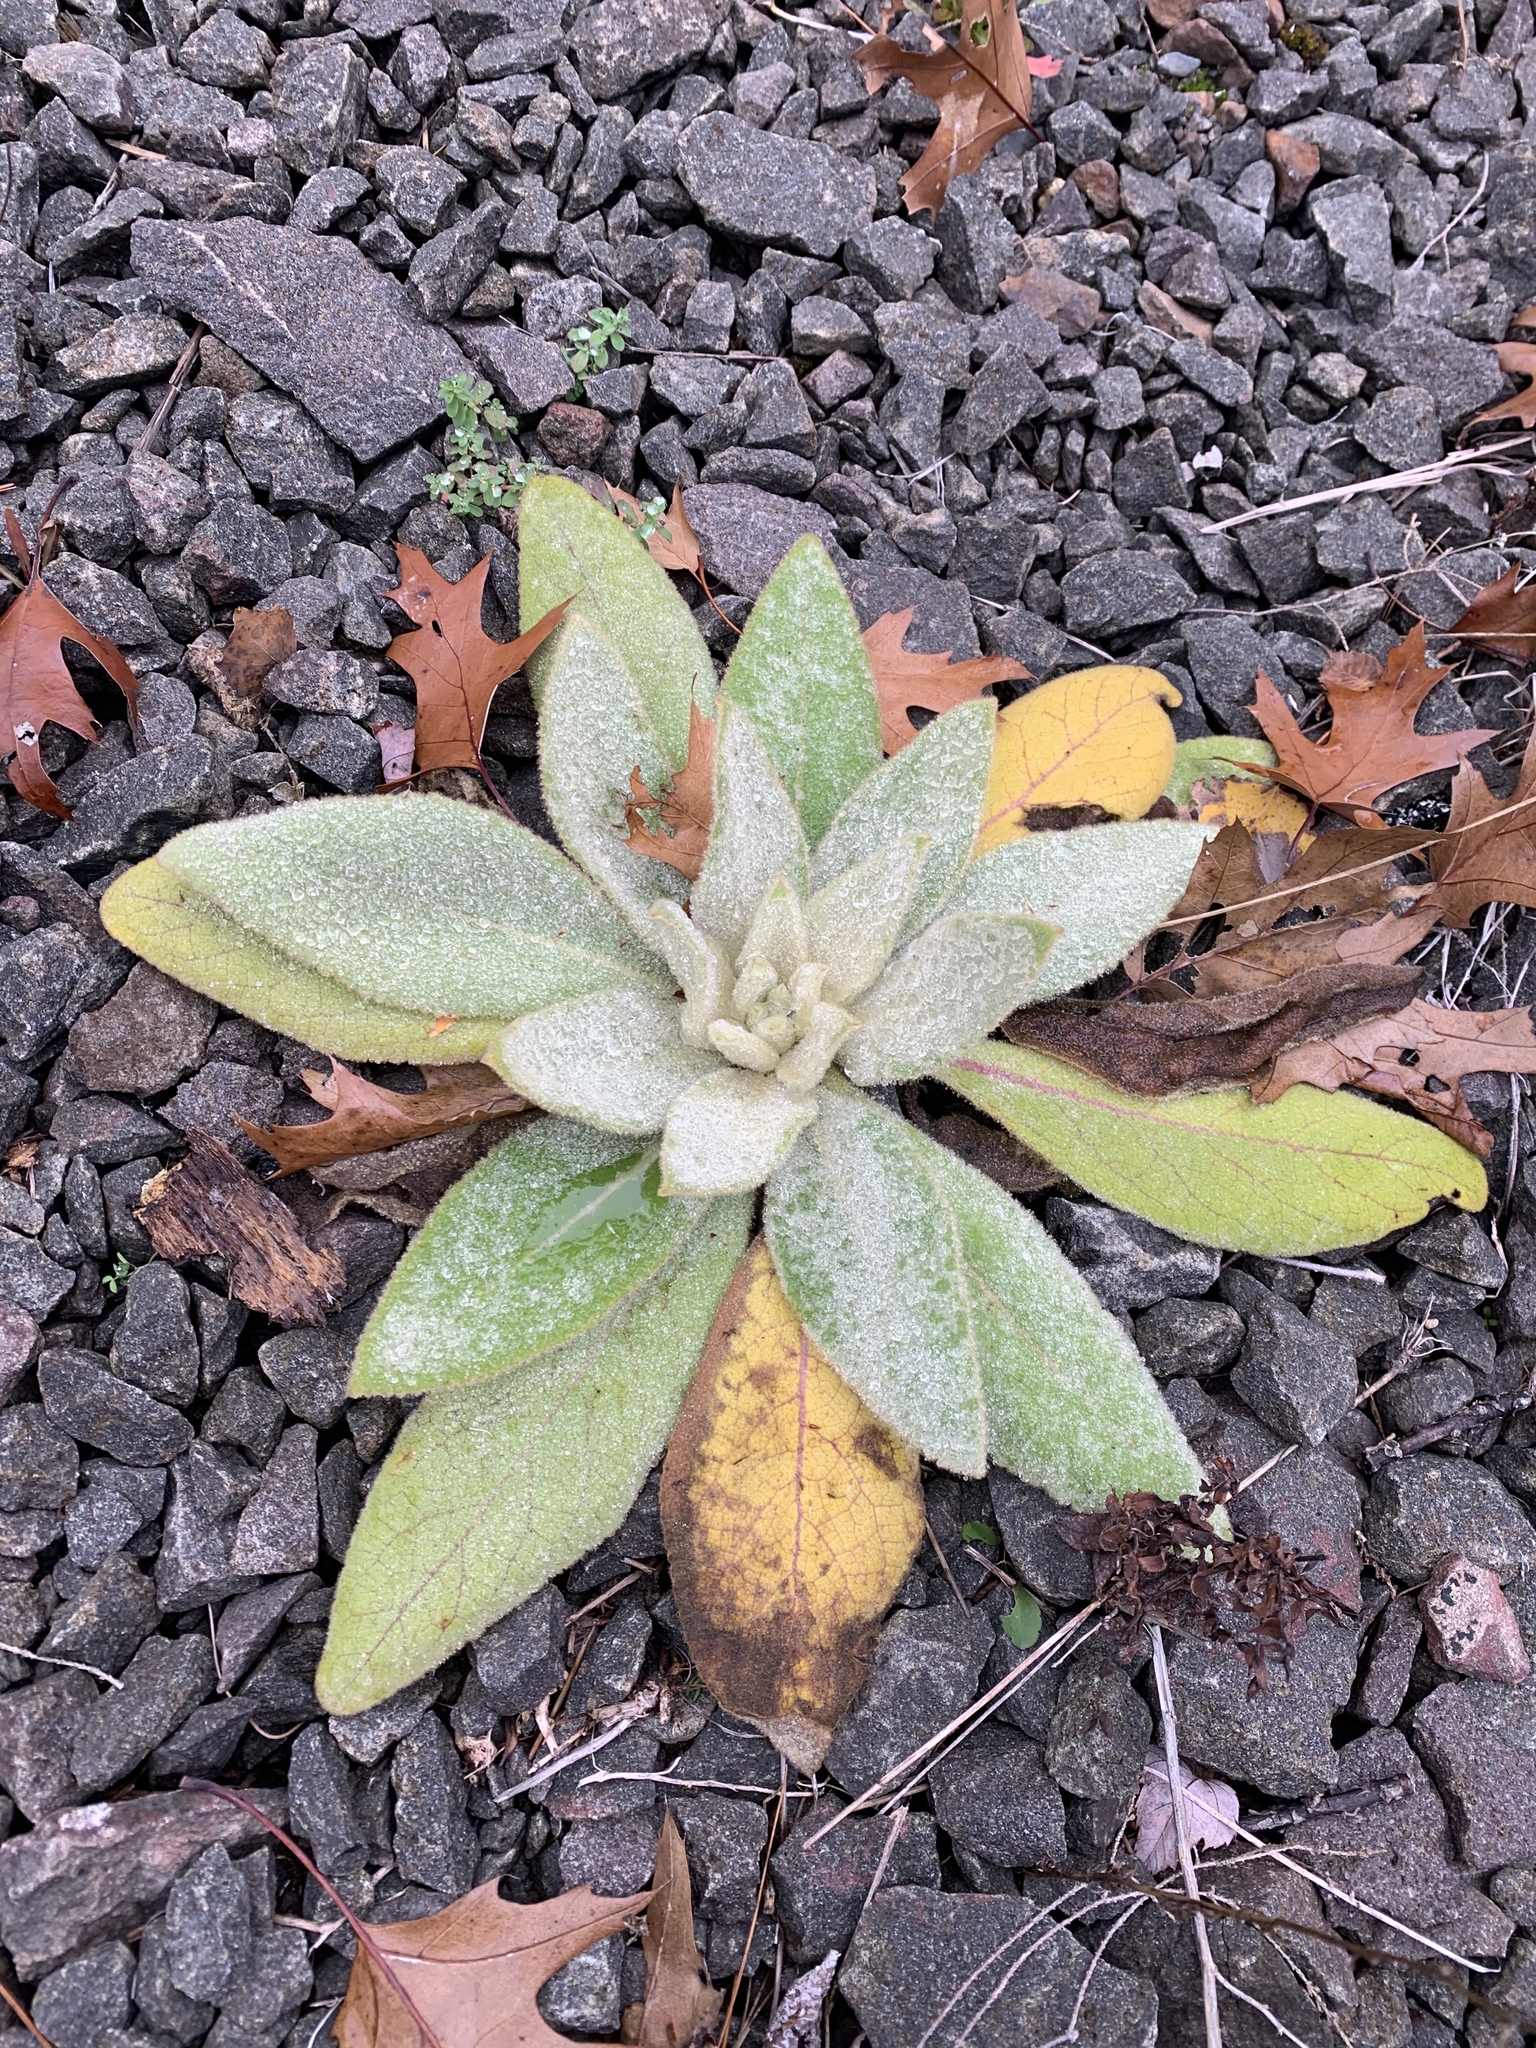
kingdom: Plantae
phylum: Tracheophyta
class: Magnoliopsida
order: Lamiales
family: Scrophulariaceae
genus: Verbascum
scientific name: Verbascum thapsus
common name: Common mullein
